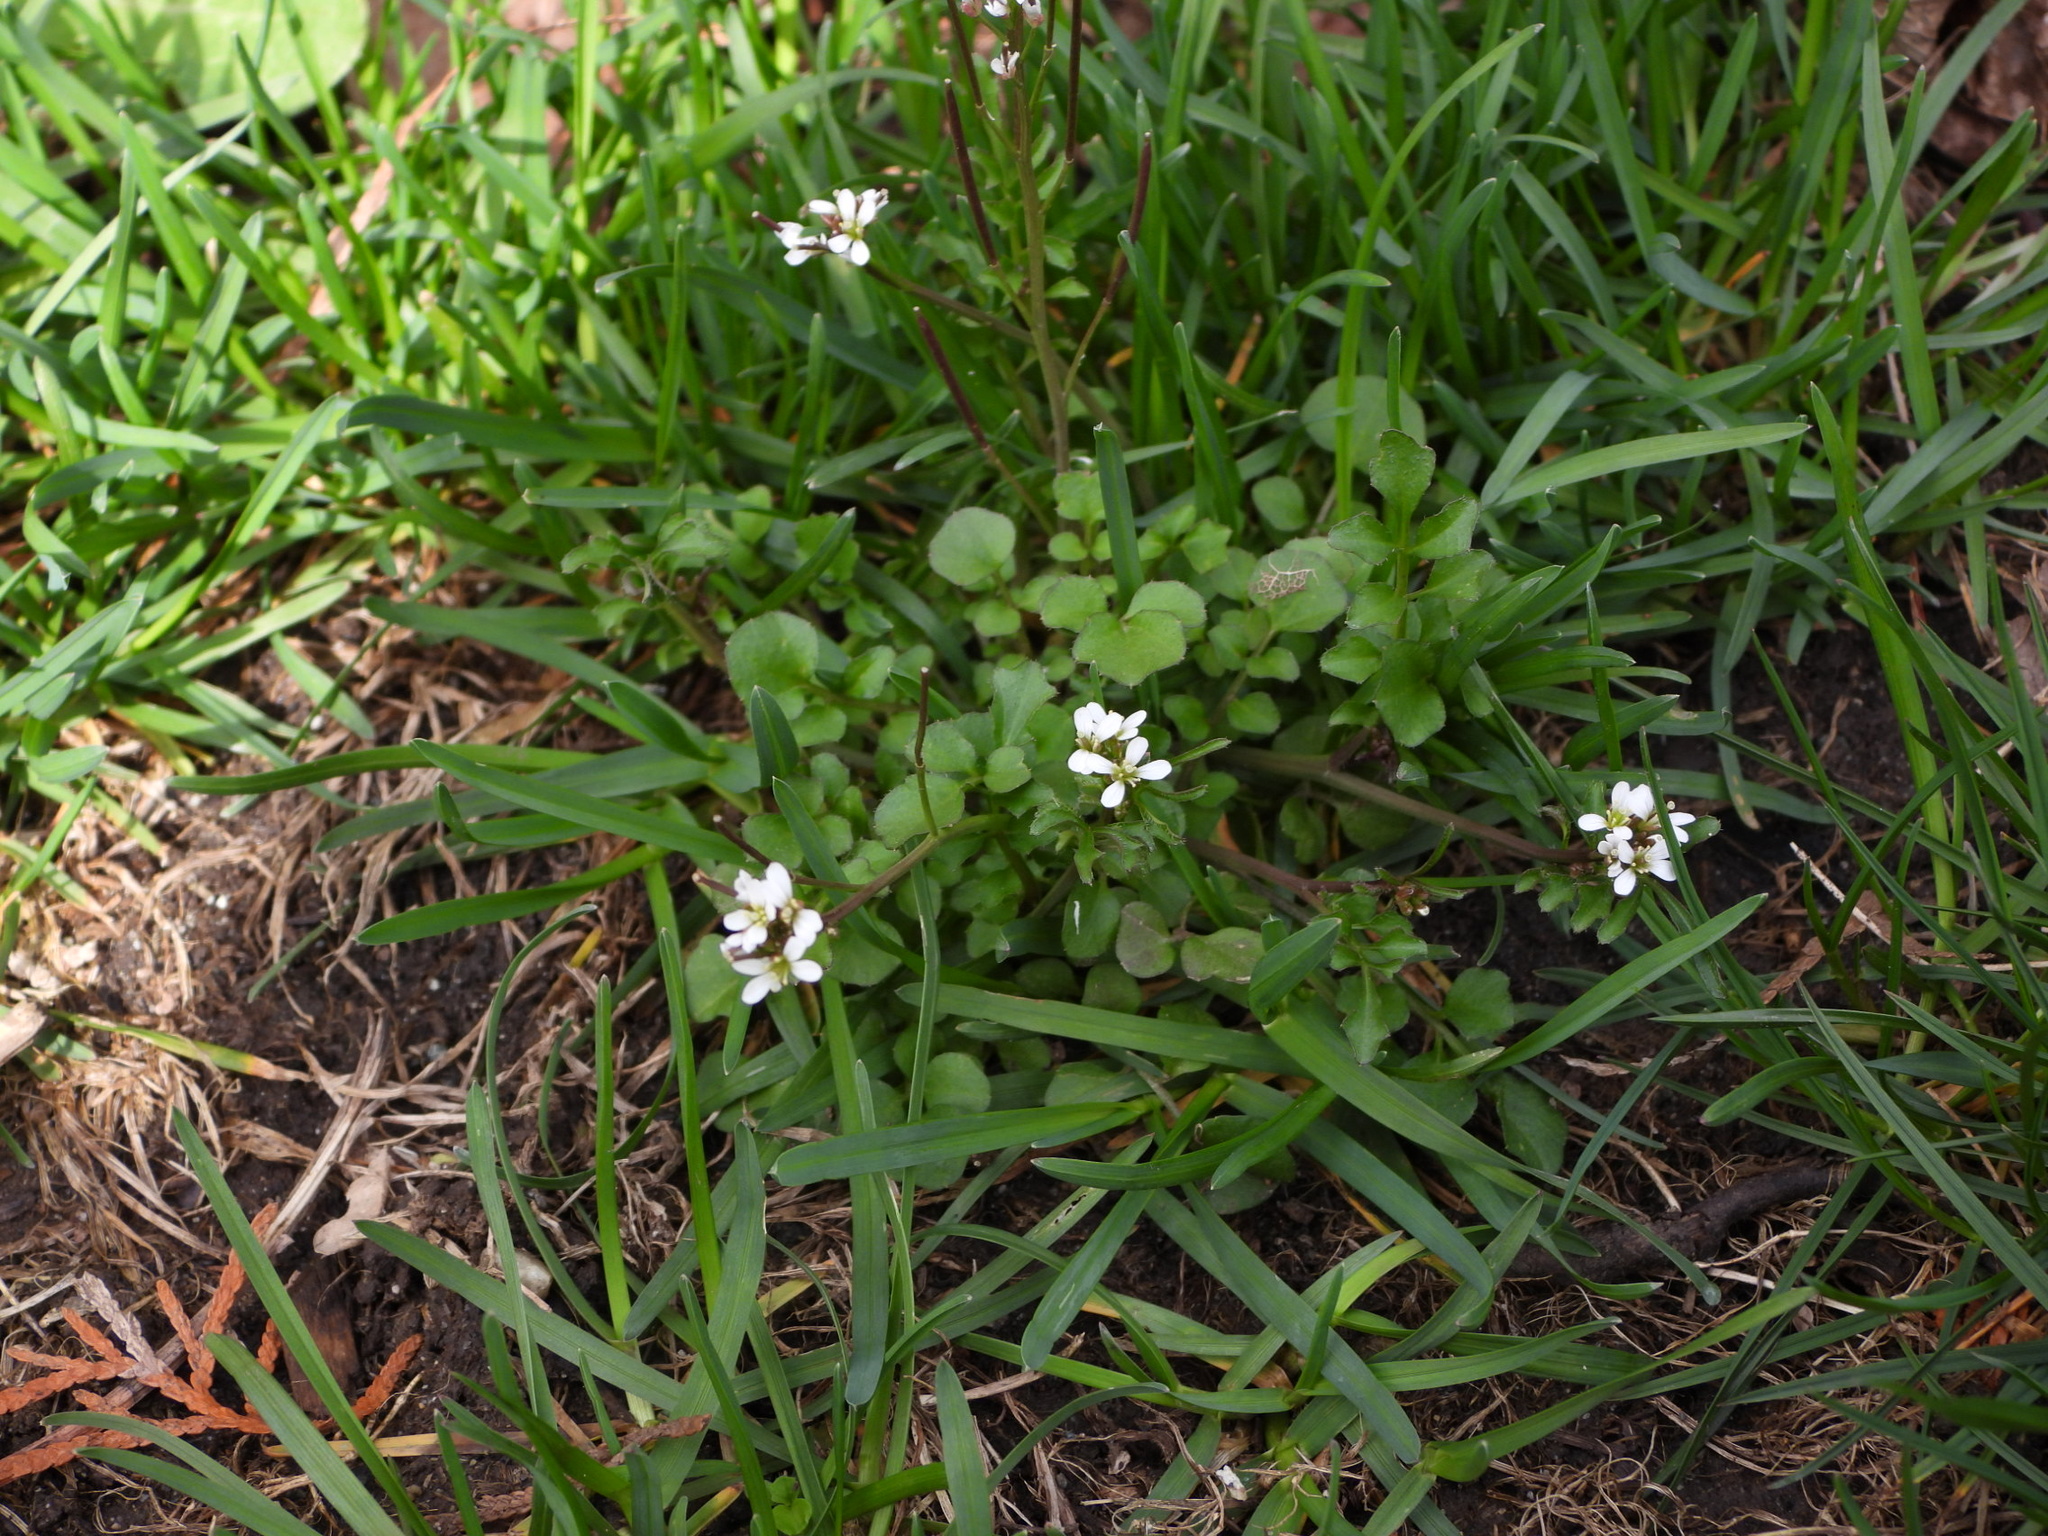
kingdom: Plantae
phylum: Tracheophyta
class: Magnoliopsida
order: Brassicales
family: Brassicaceae
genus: Cardamine
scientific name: Cardamine hirsuta
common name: Hairy bittercress
